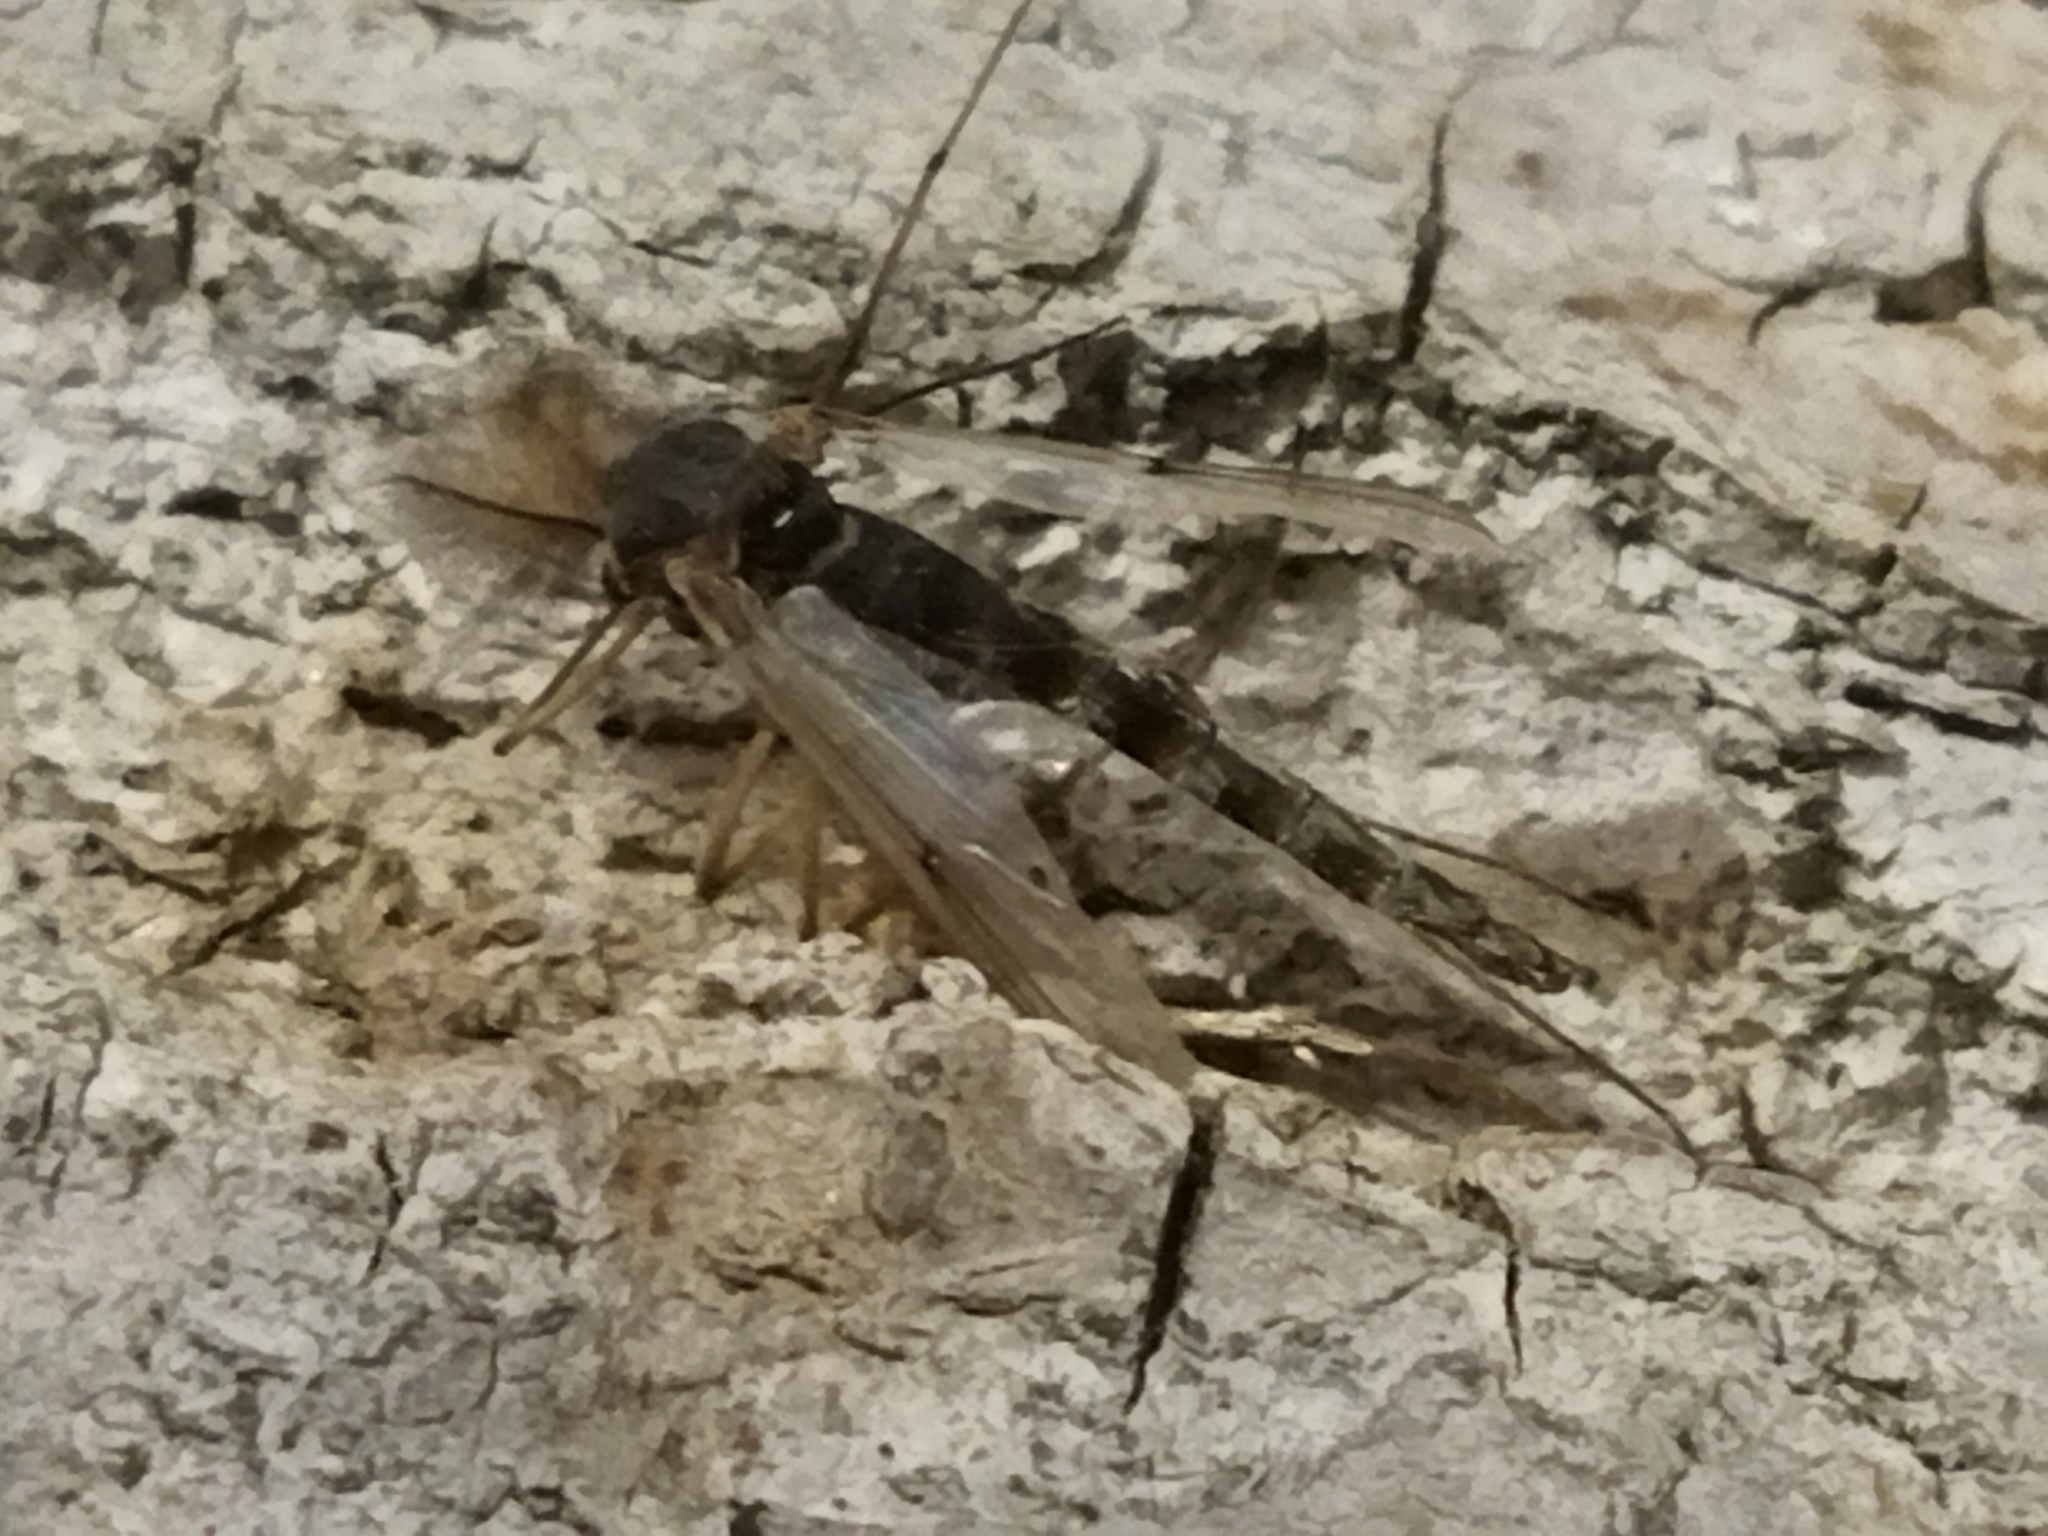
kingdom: Animalia
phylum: Arthropoda
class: Insecta
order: Diptera
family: Chironomidae
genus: Glyptotendipes
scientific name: Glyptotendipes barbipes
